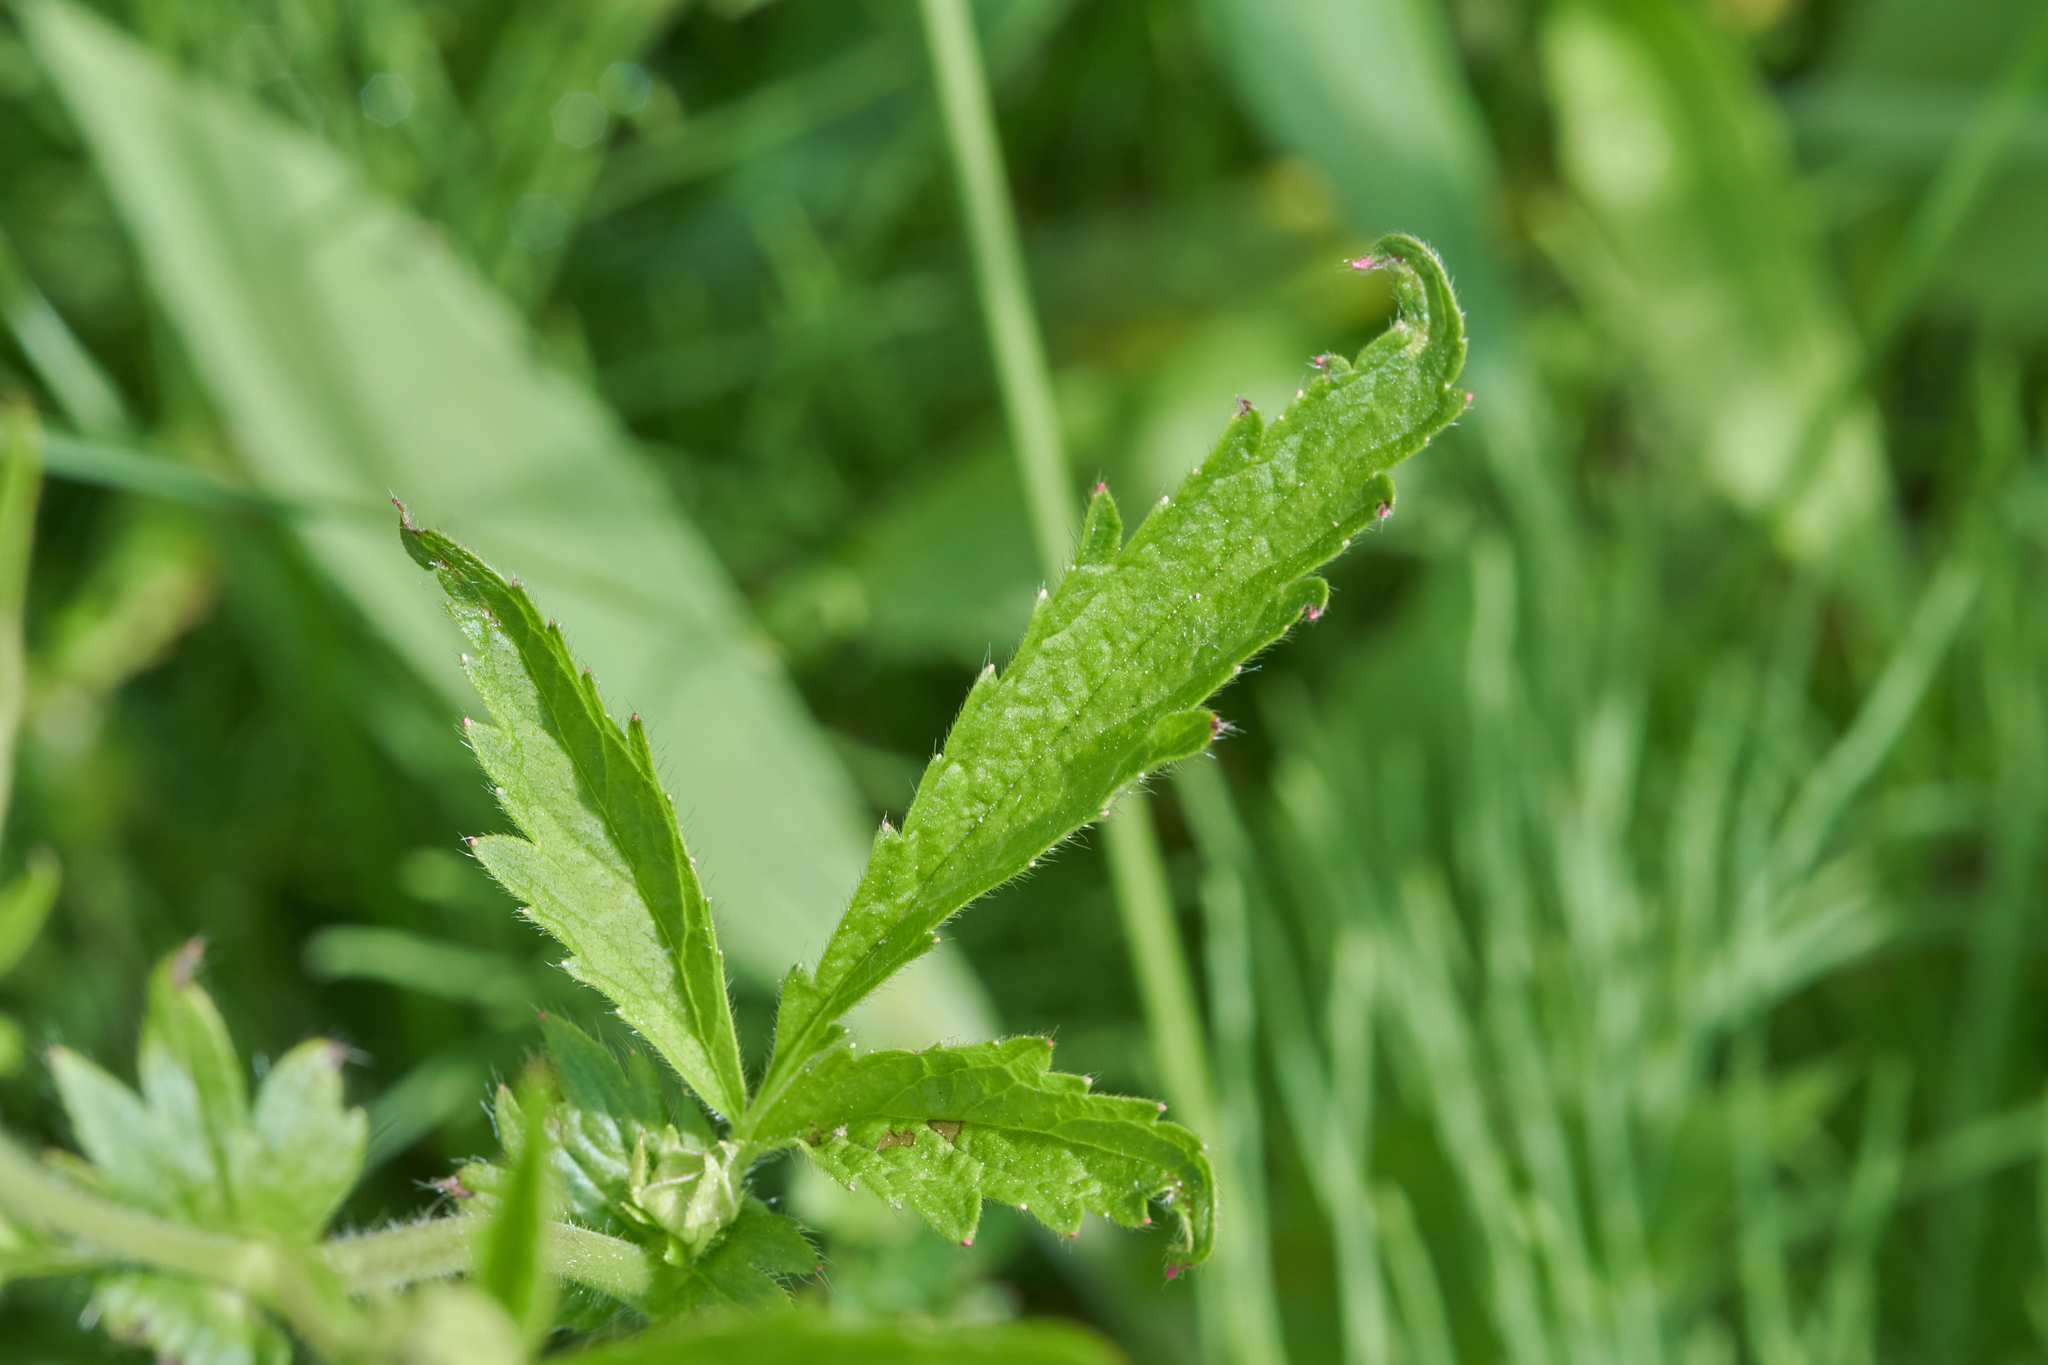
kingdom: Plantae
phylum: Tracheophyta
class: Magnoliopsida
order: Rosales
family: Rosaceae
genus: Geum
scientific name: Geum aleppicum
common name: Yellow avens
